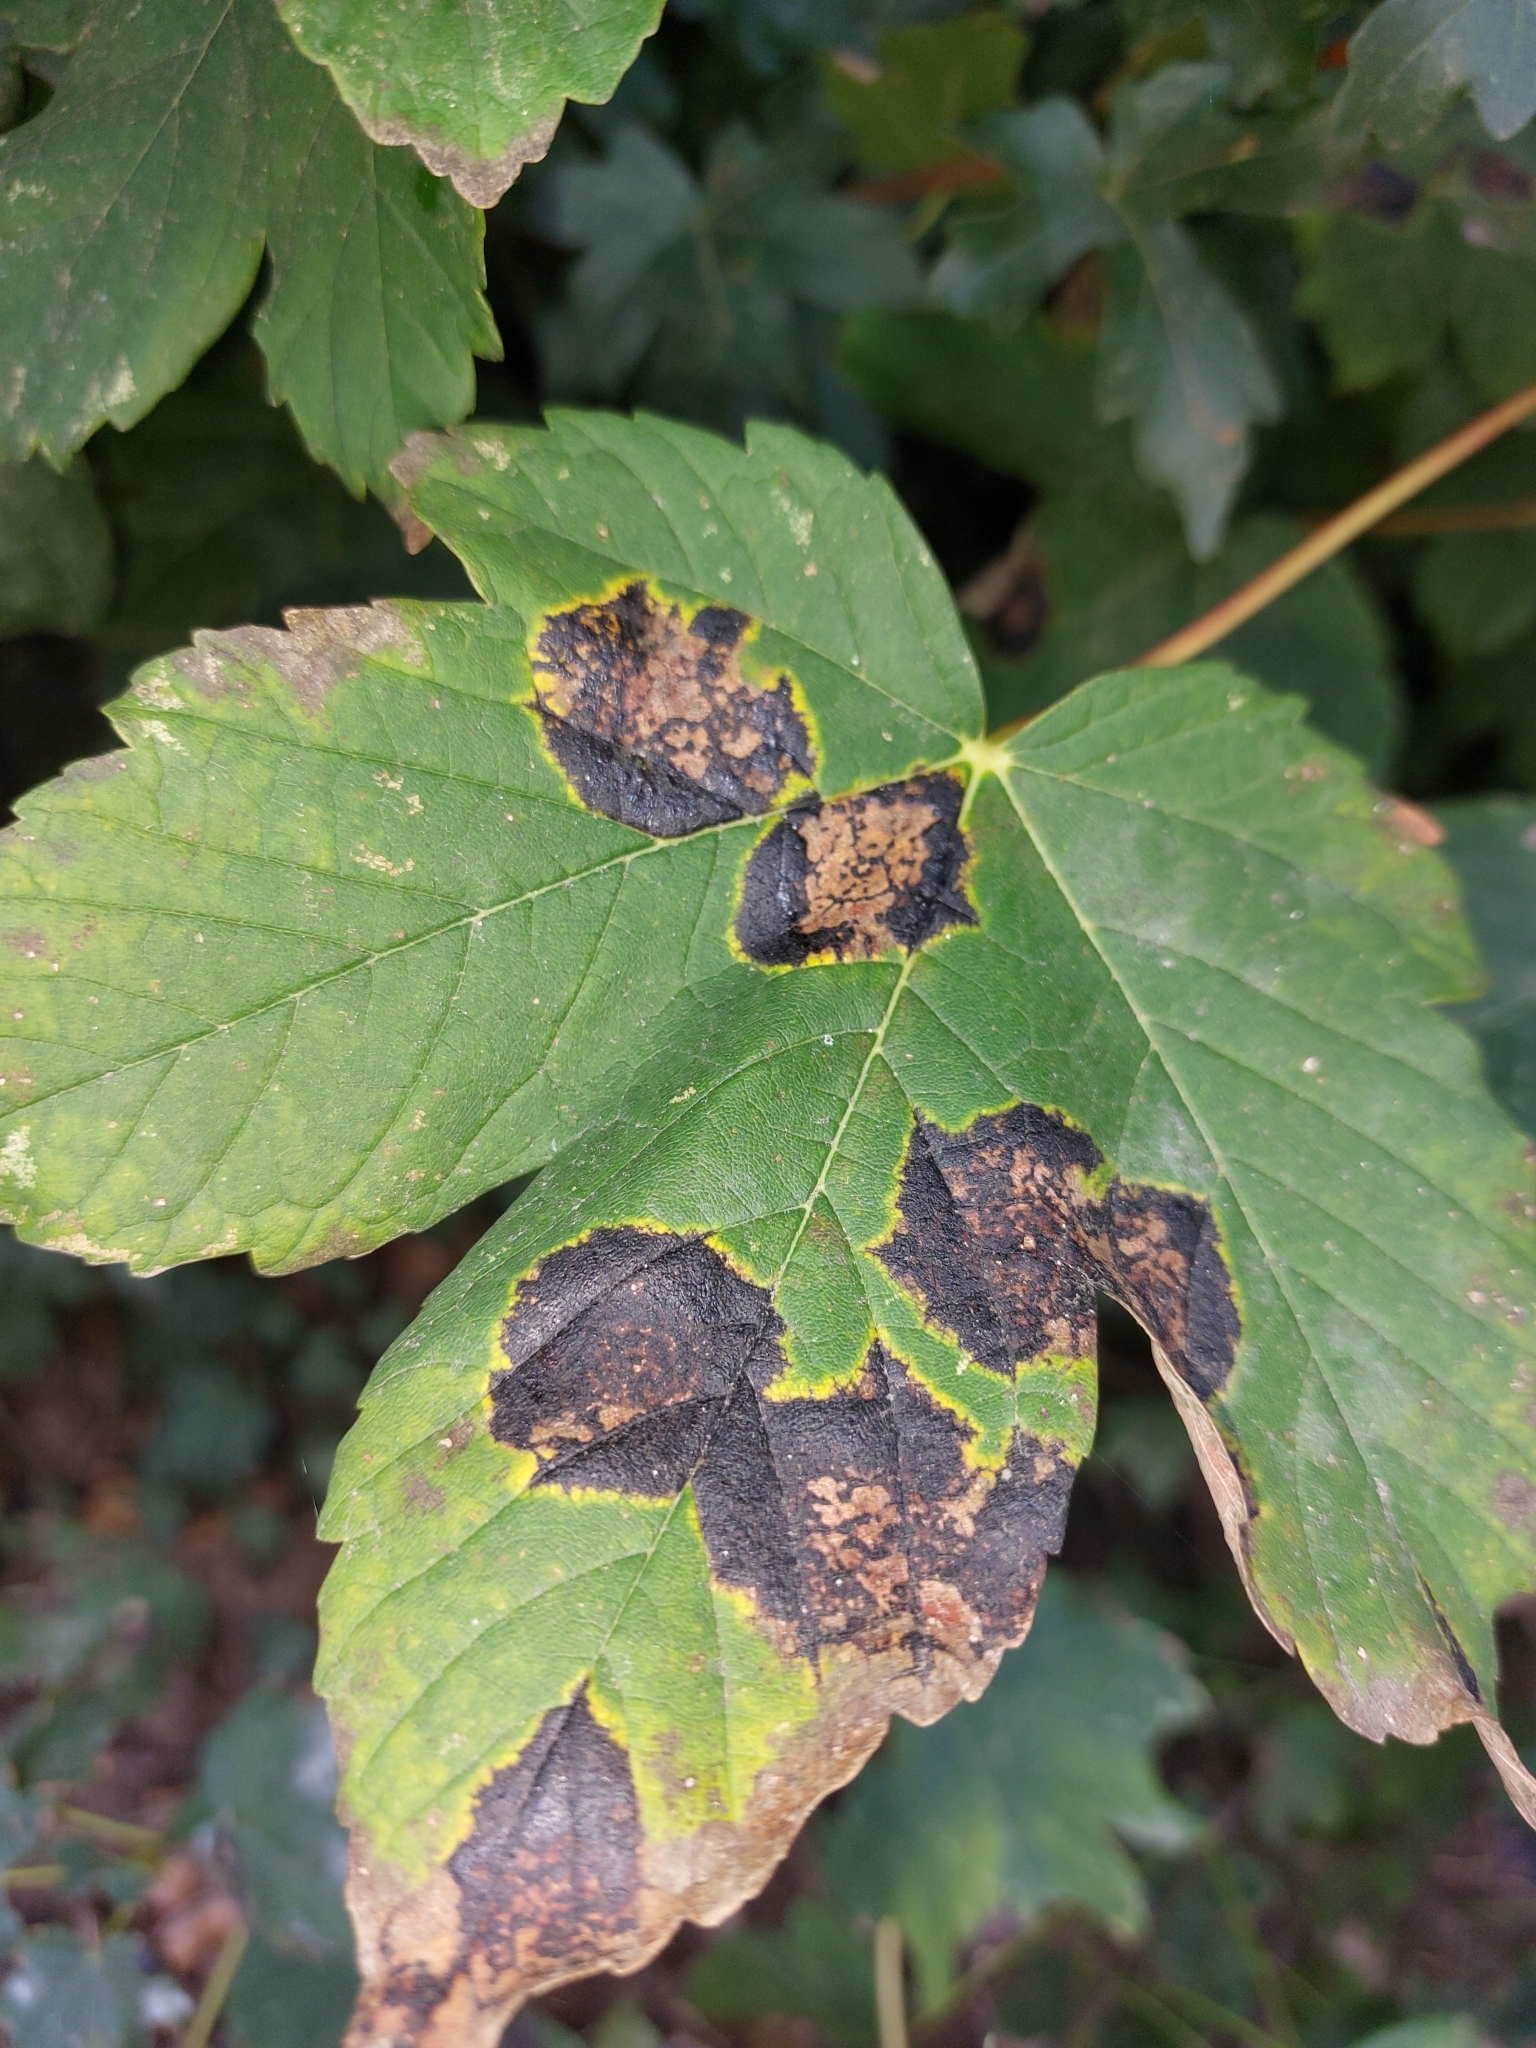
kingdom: Fungi
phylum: Ascomycota
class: Leotiomycetes
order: Rhytismatales
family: Rhytismataceae
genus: Rhytisma
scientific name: Rhytisma acerinum
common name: European tar spot
